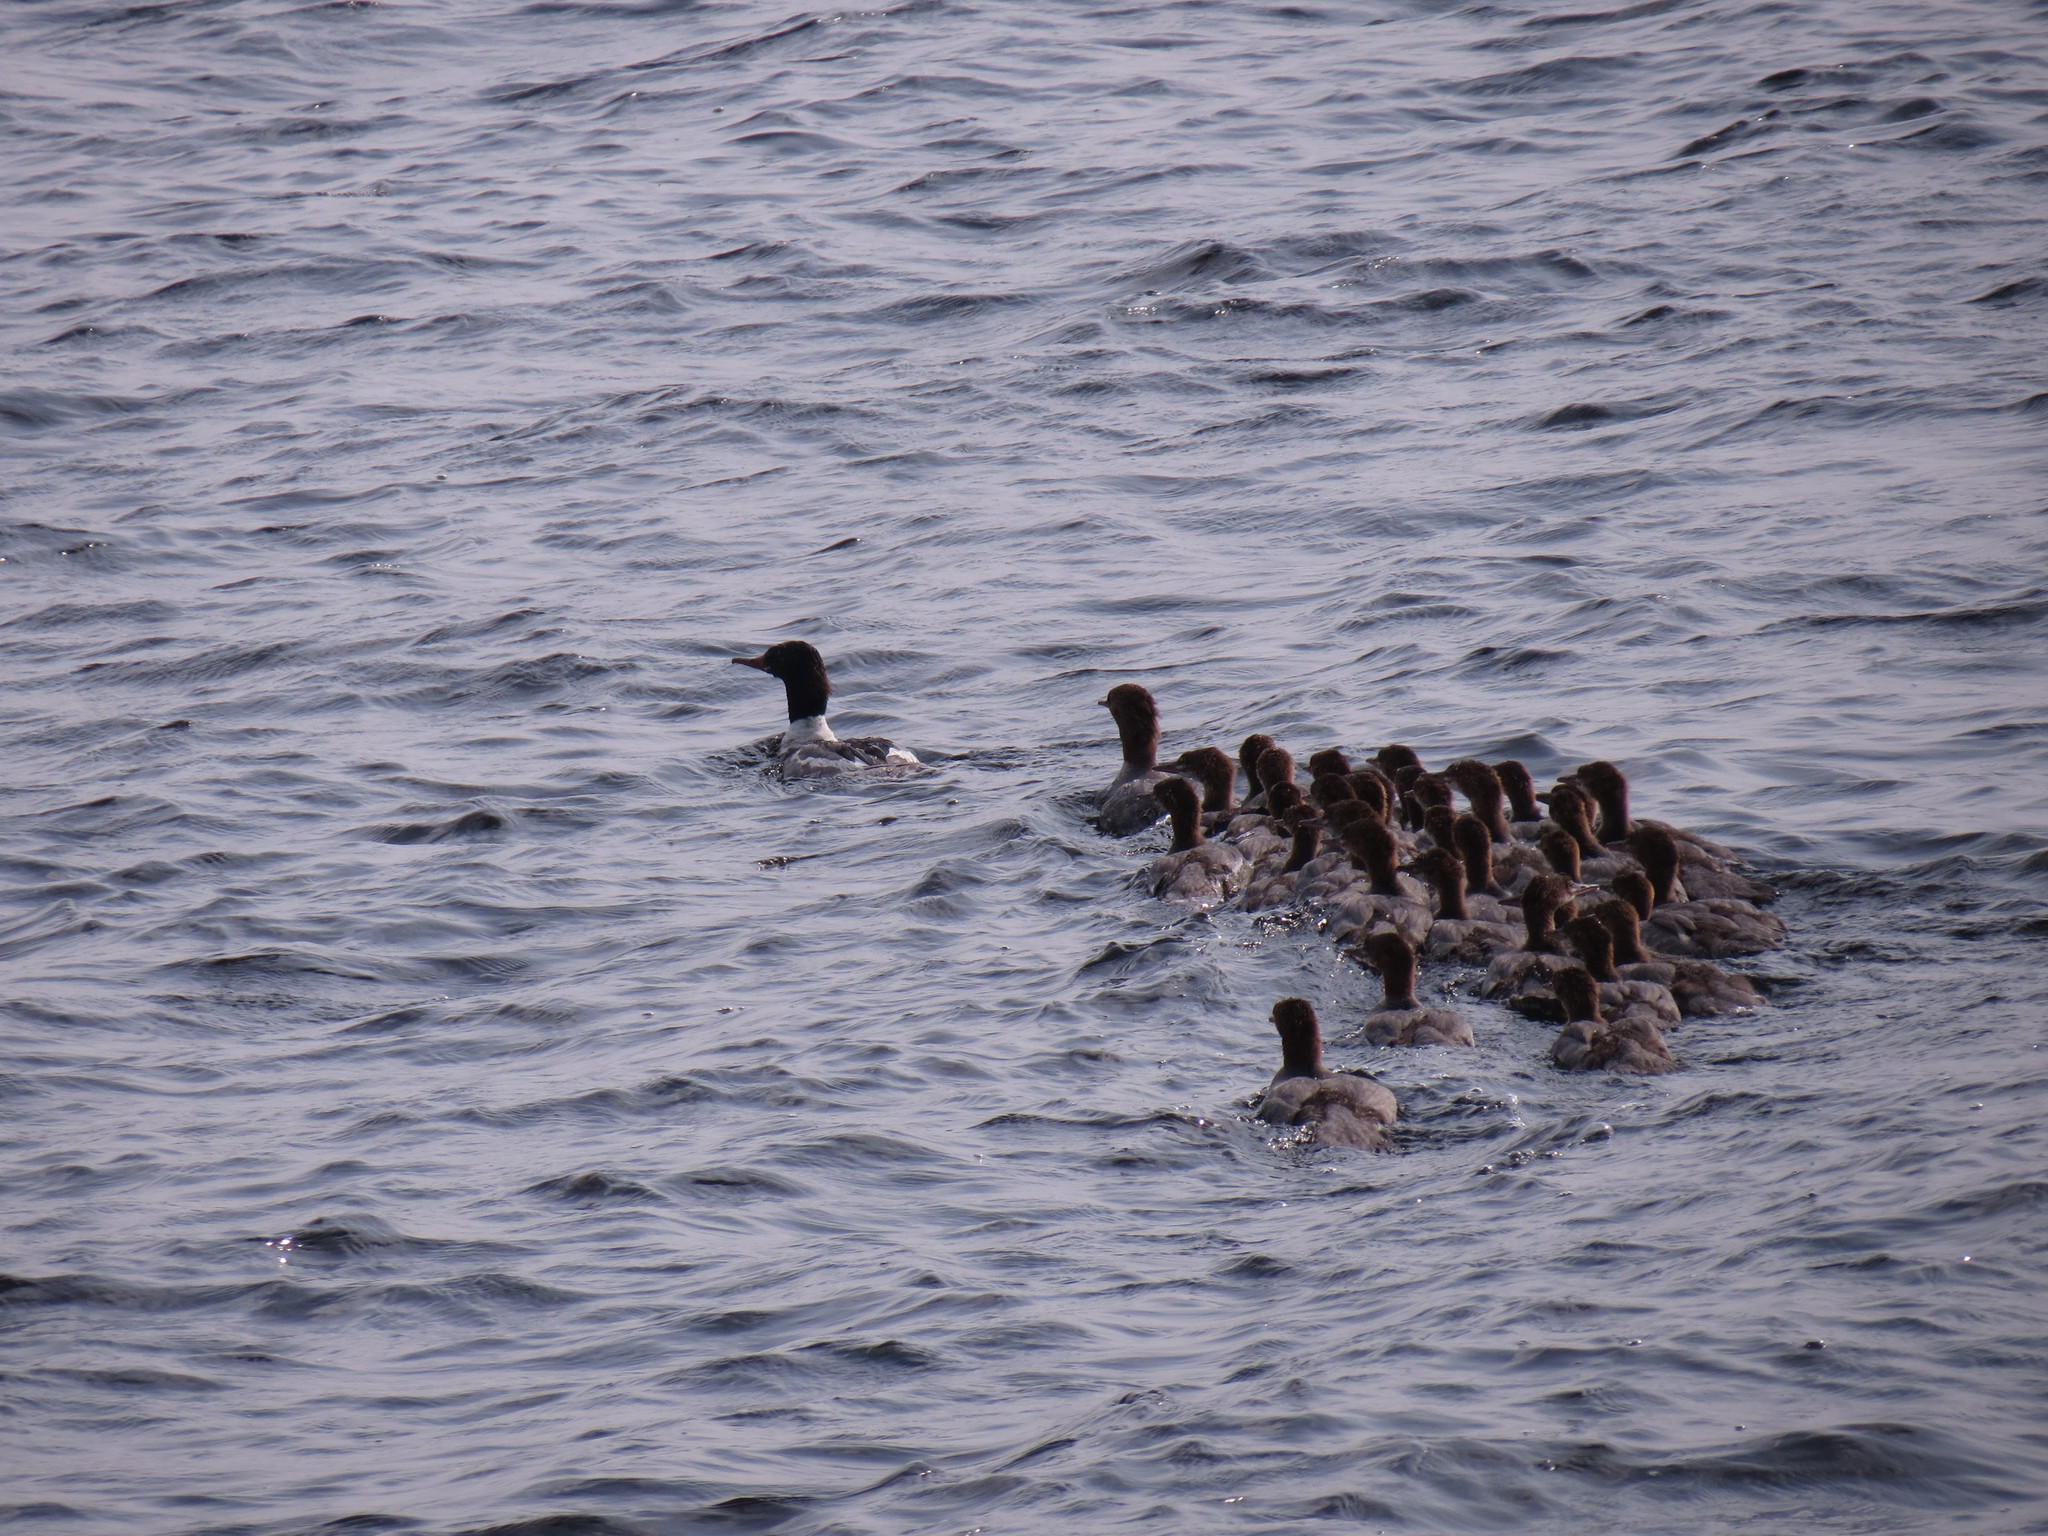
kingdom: Animalia
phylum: Chordata
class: Aves
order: Anseriformes
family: Anatidae
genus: Mergus
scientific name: Mergus merganser
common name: Common merganser
